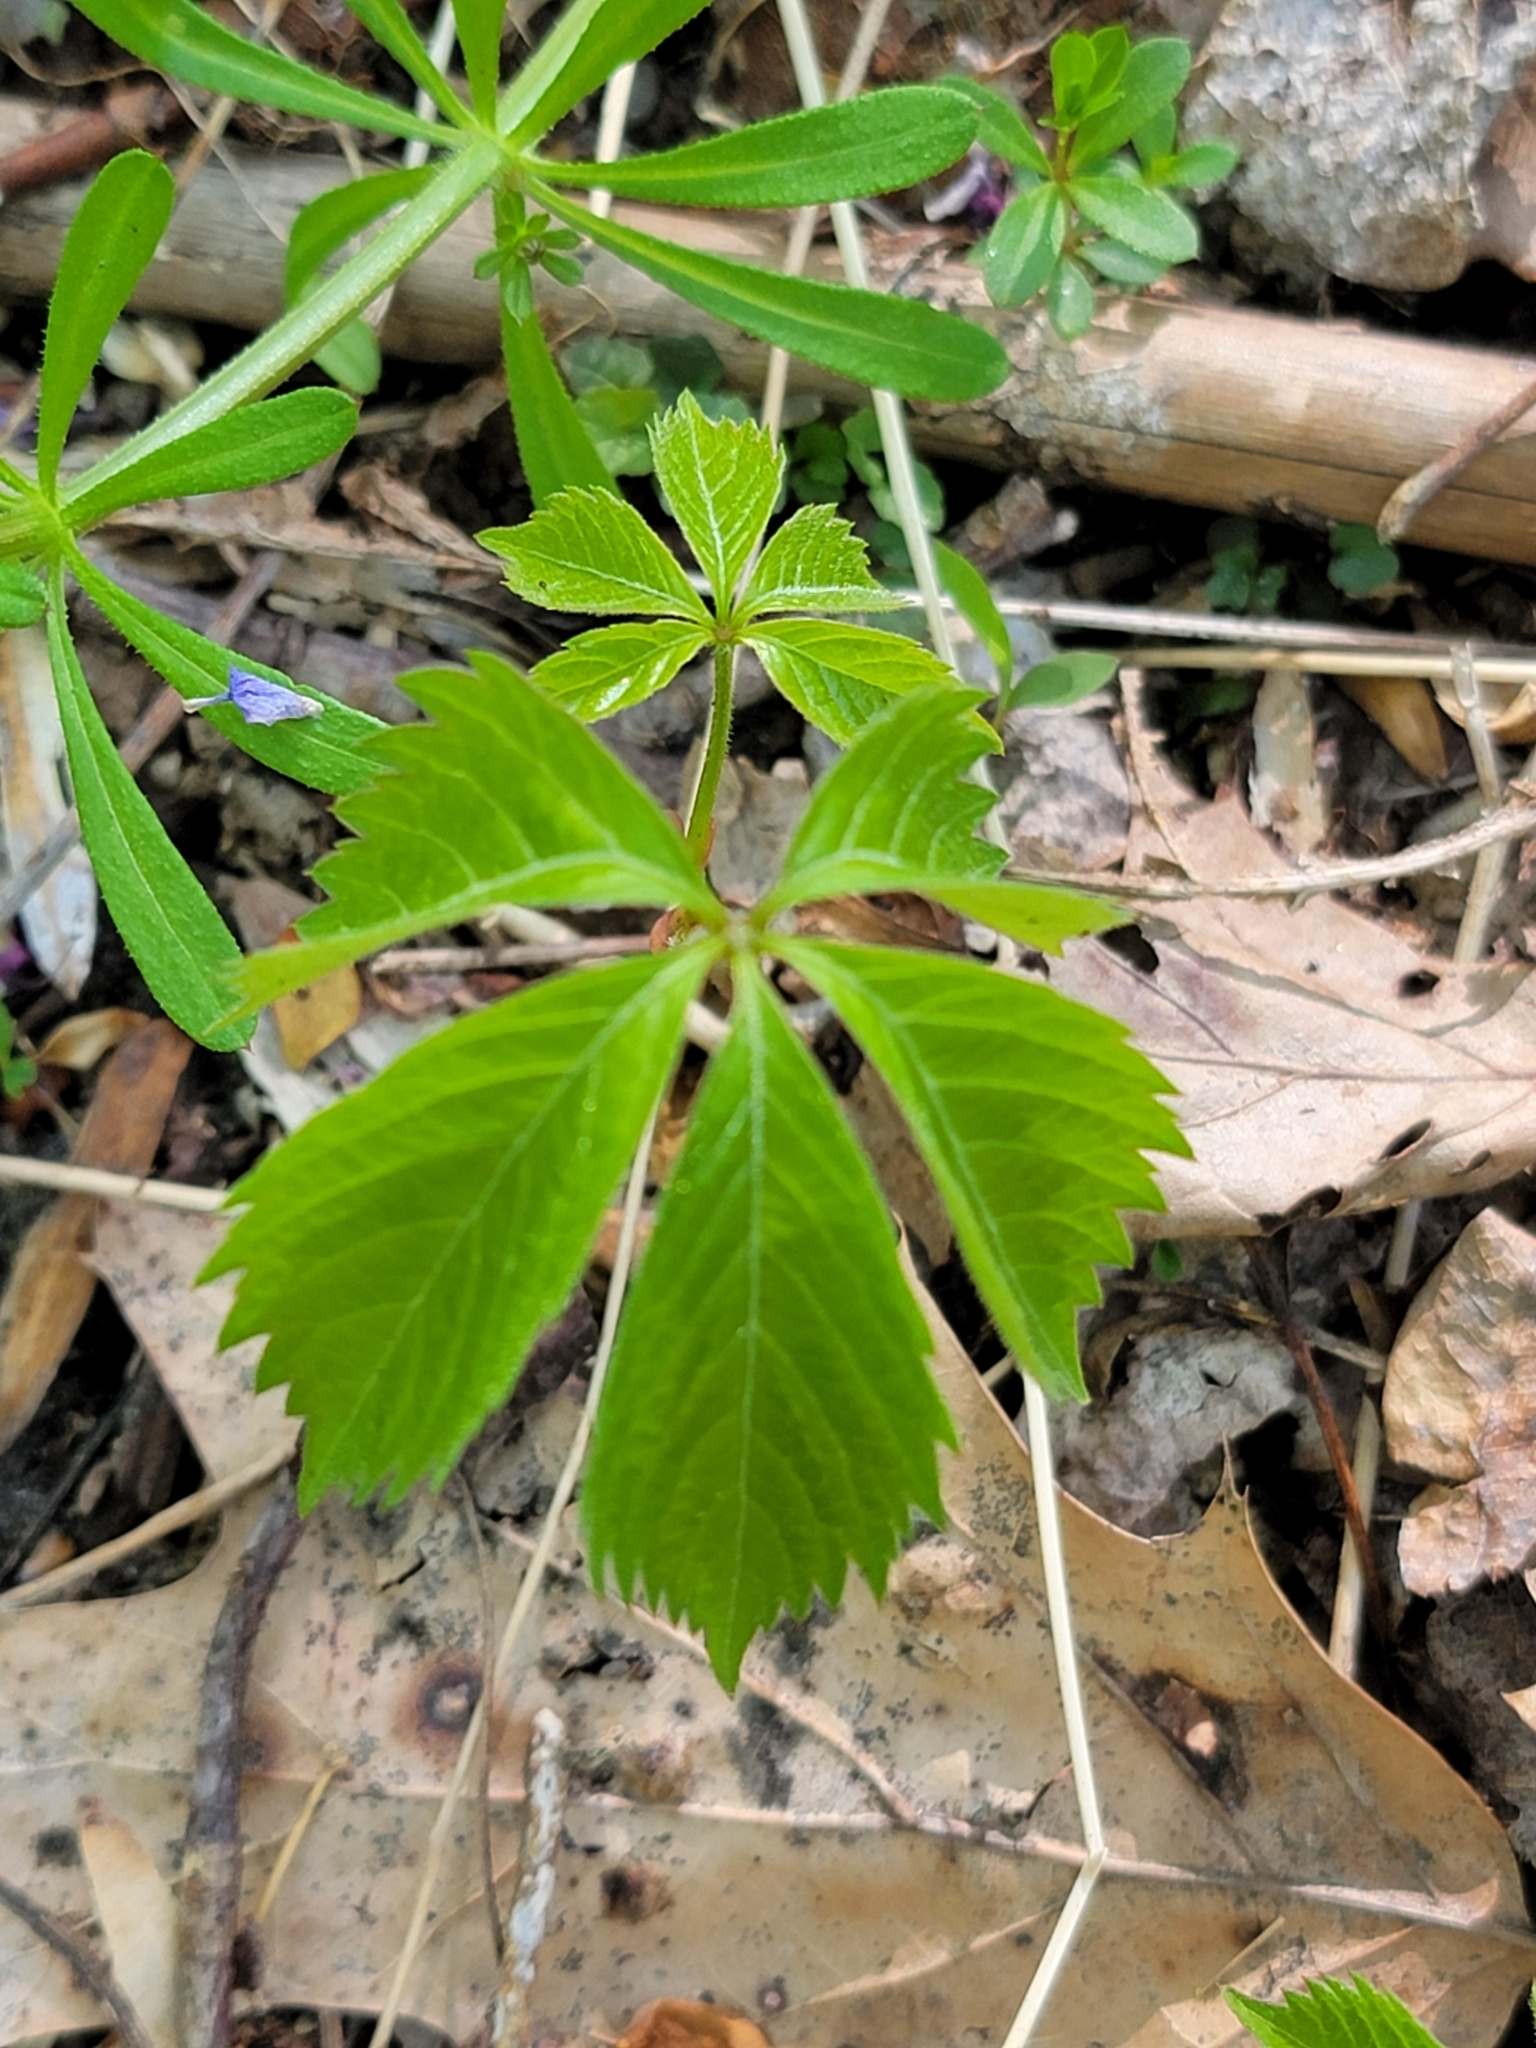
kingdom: Plantae
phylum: Tracheophyta
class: Magnoliopsida
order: Vitales
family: Vitaceae
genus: Parthenocissus
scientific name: Parthenocissus quinquefolia
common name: Virginia-creeper
